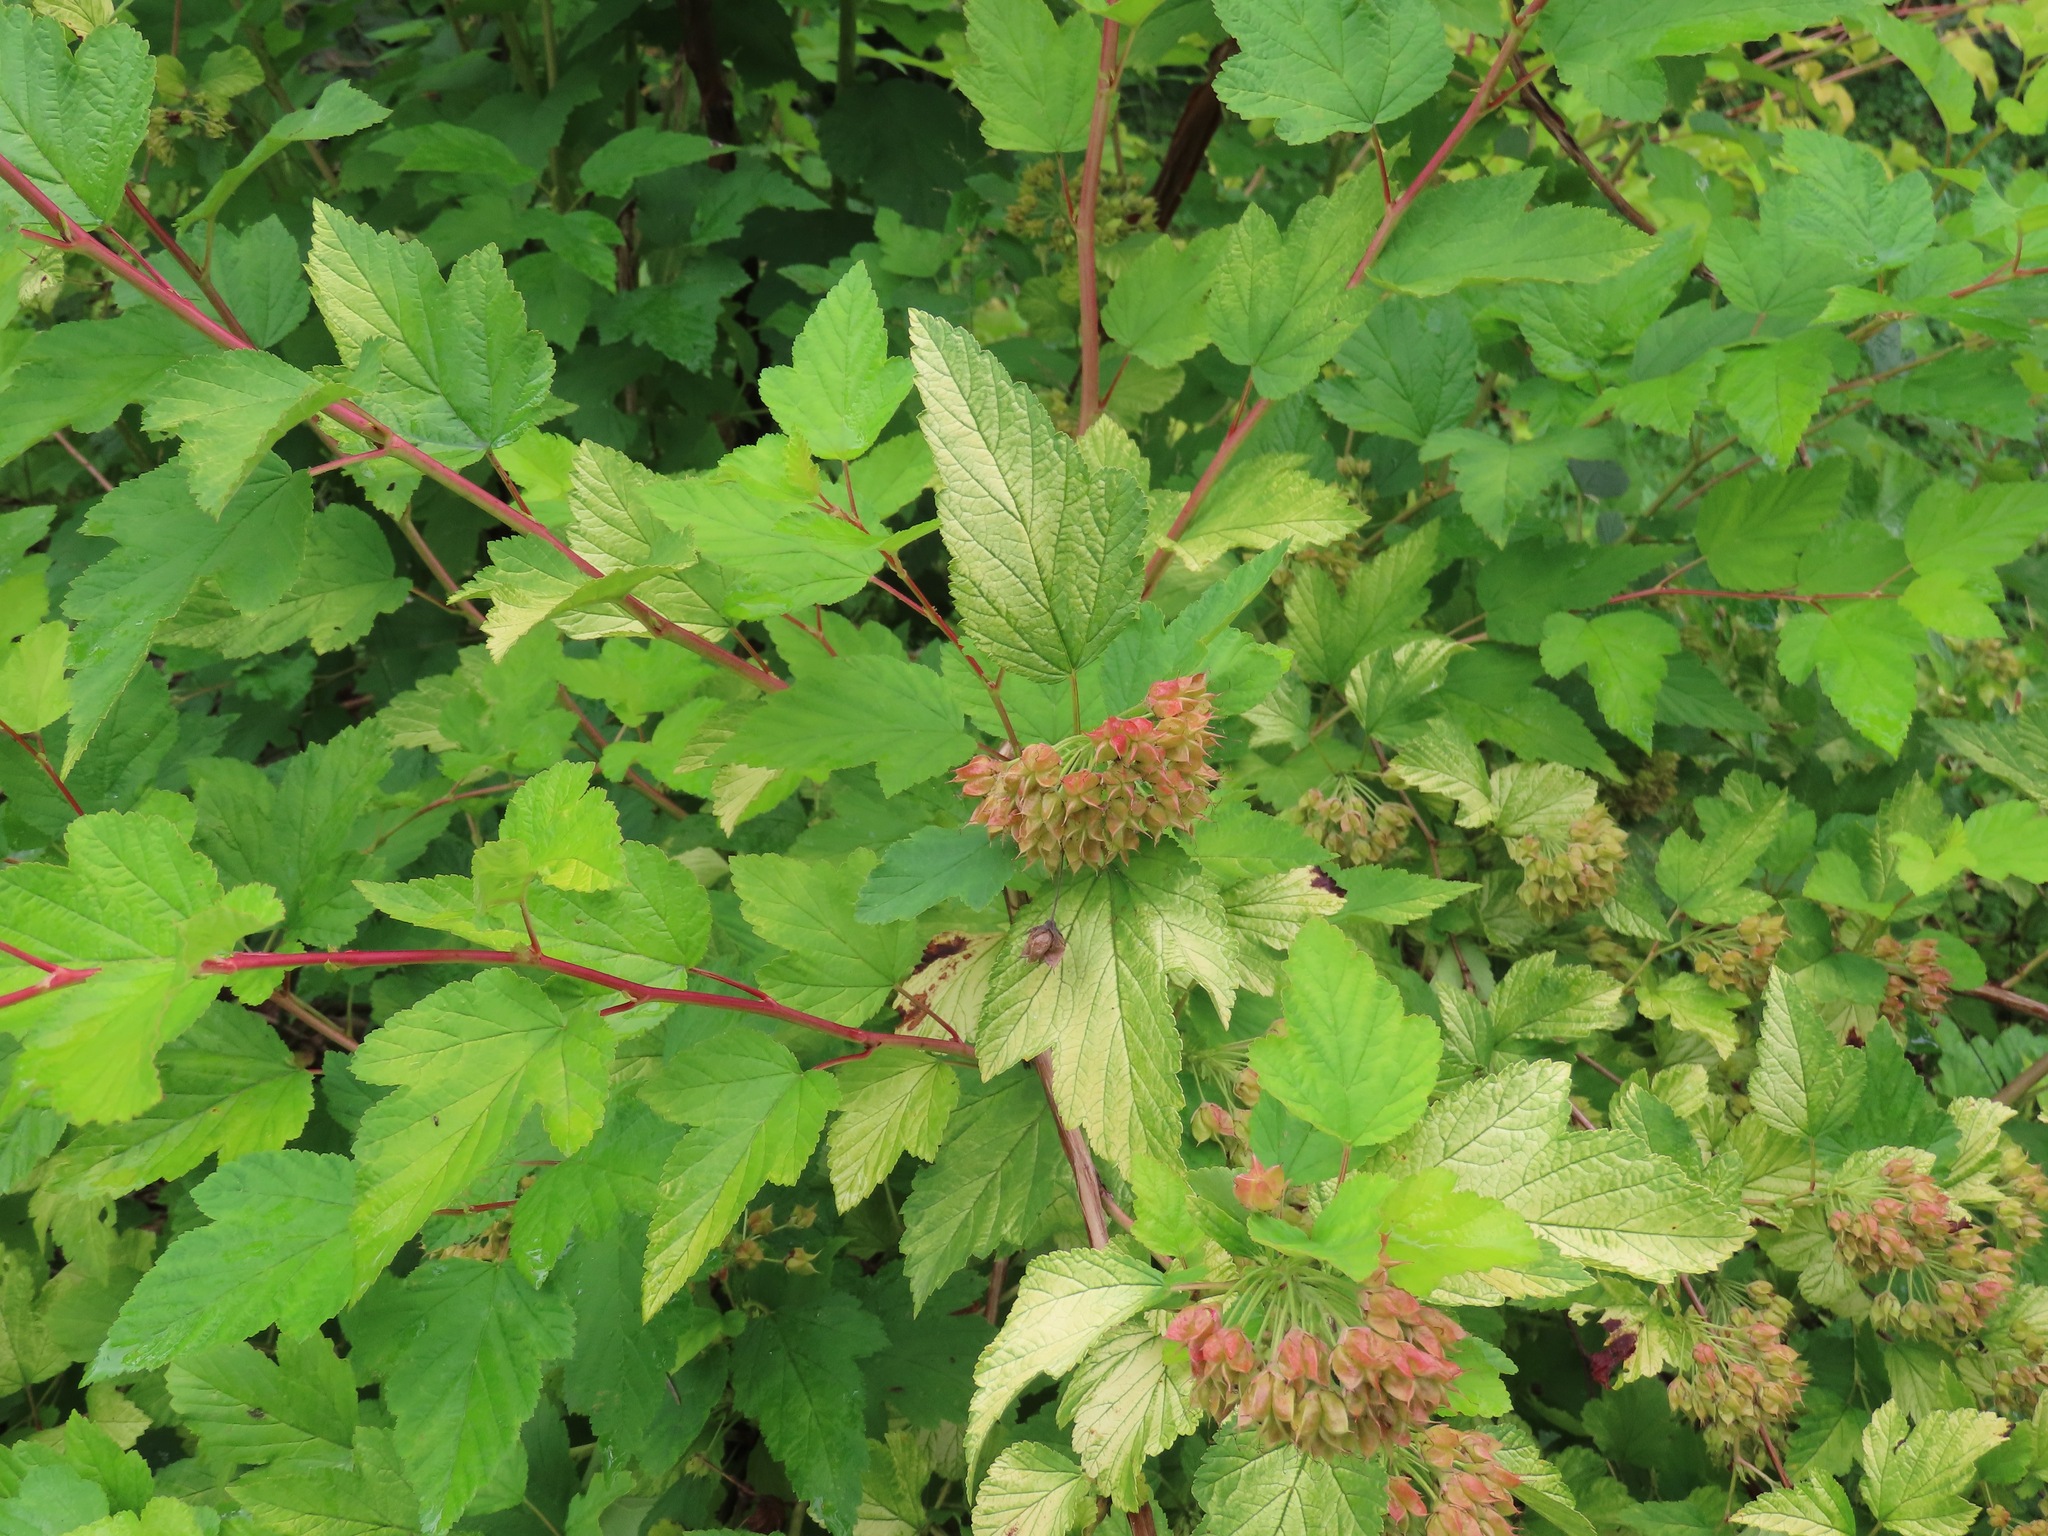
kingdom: Plantae
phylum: Tracheophyta
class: Magnoliopsida
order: Rosales
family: Rosaceae
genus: Physocarpus
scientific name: Physocarpus capitatus
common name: Pacific ninebark
